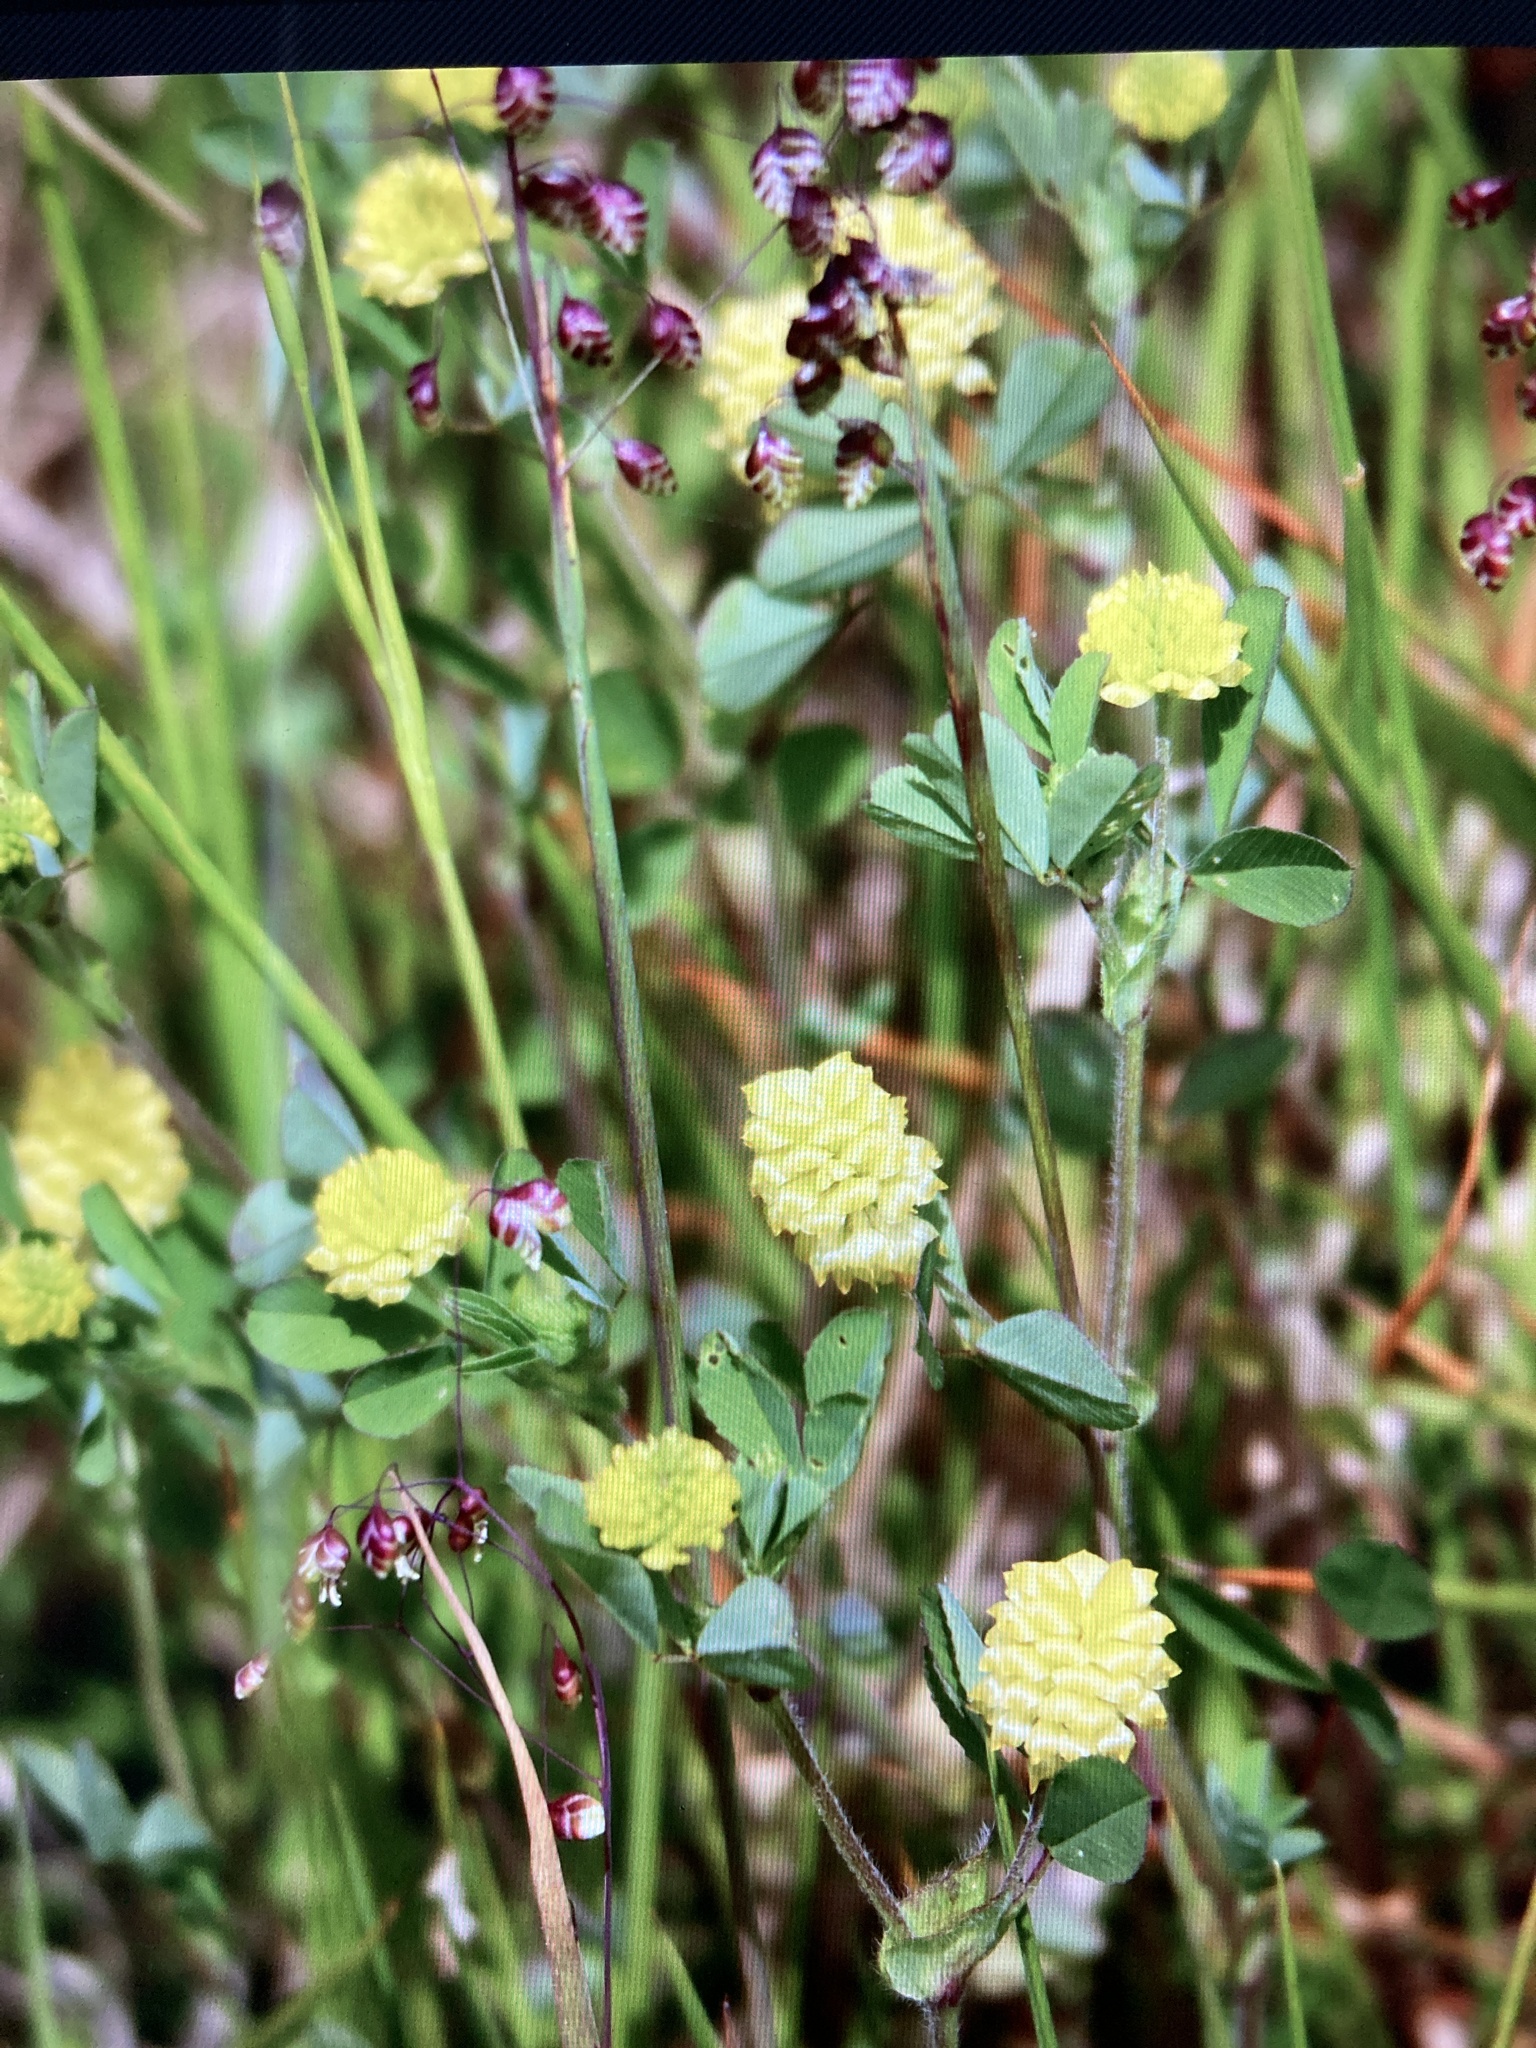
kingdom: Plantae
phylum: Tracheophyta
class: Magnoliopsida
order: Fabales
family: Fabaceae
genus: Trifolium
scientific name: Trifolium campestre
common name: Field clover
